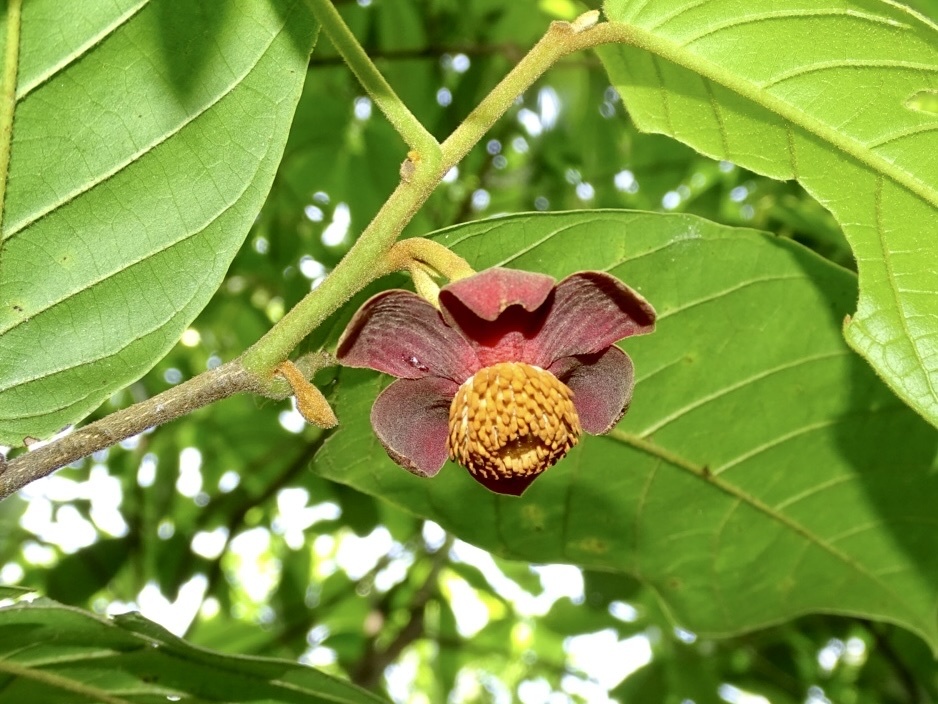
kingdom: Plantae
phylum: Tracheophyta
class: Magnoliopsida
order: Magnoliales
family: Annonaceae
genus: Uvaria
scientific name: Uvaria littoralis
